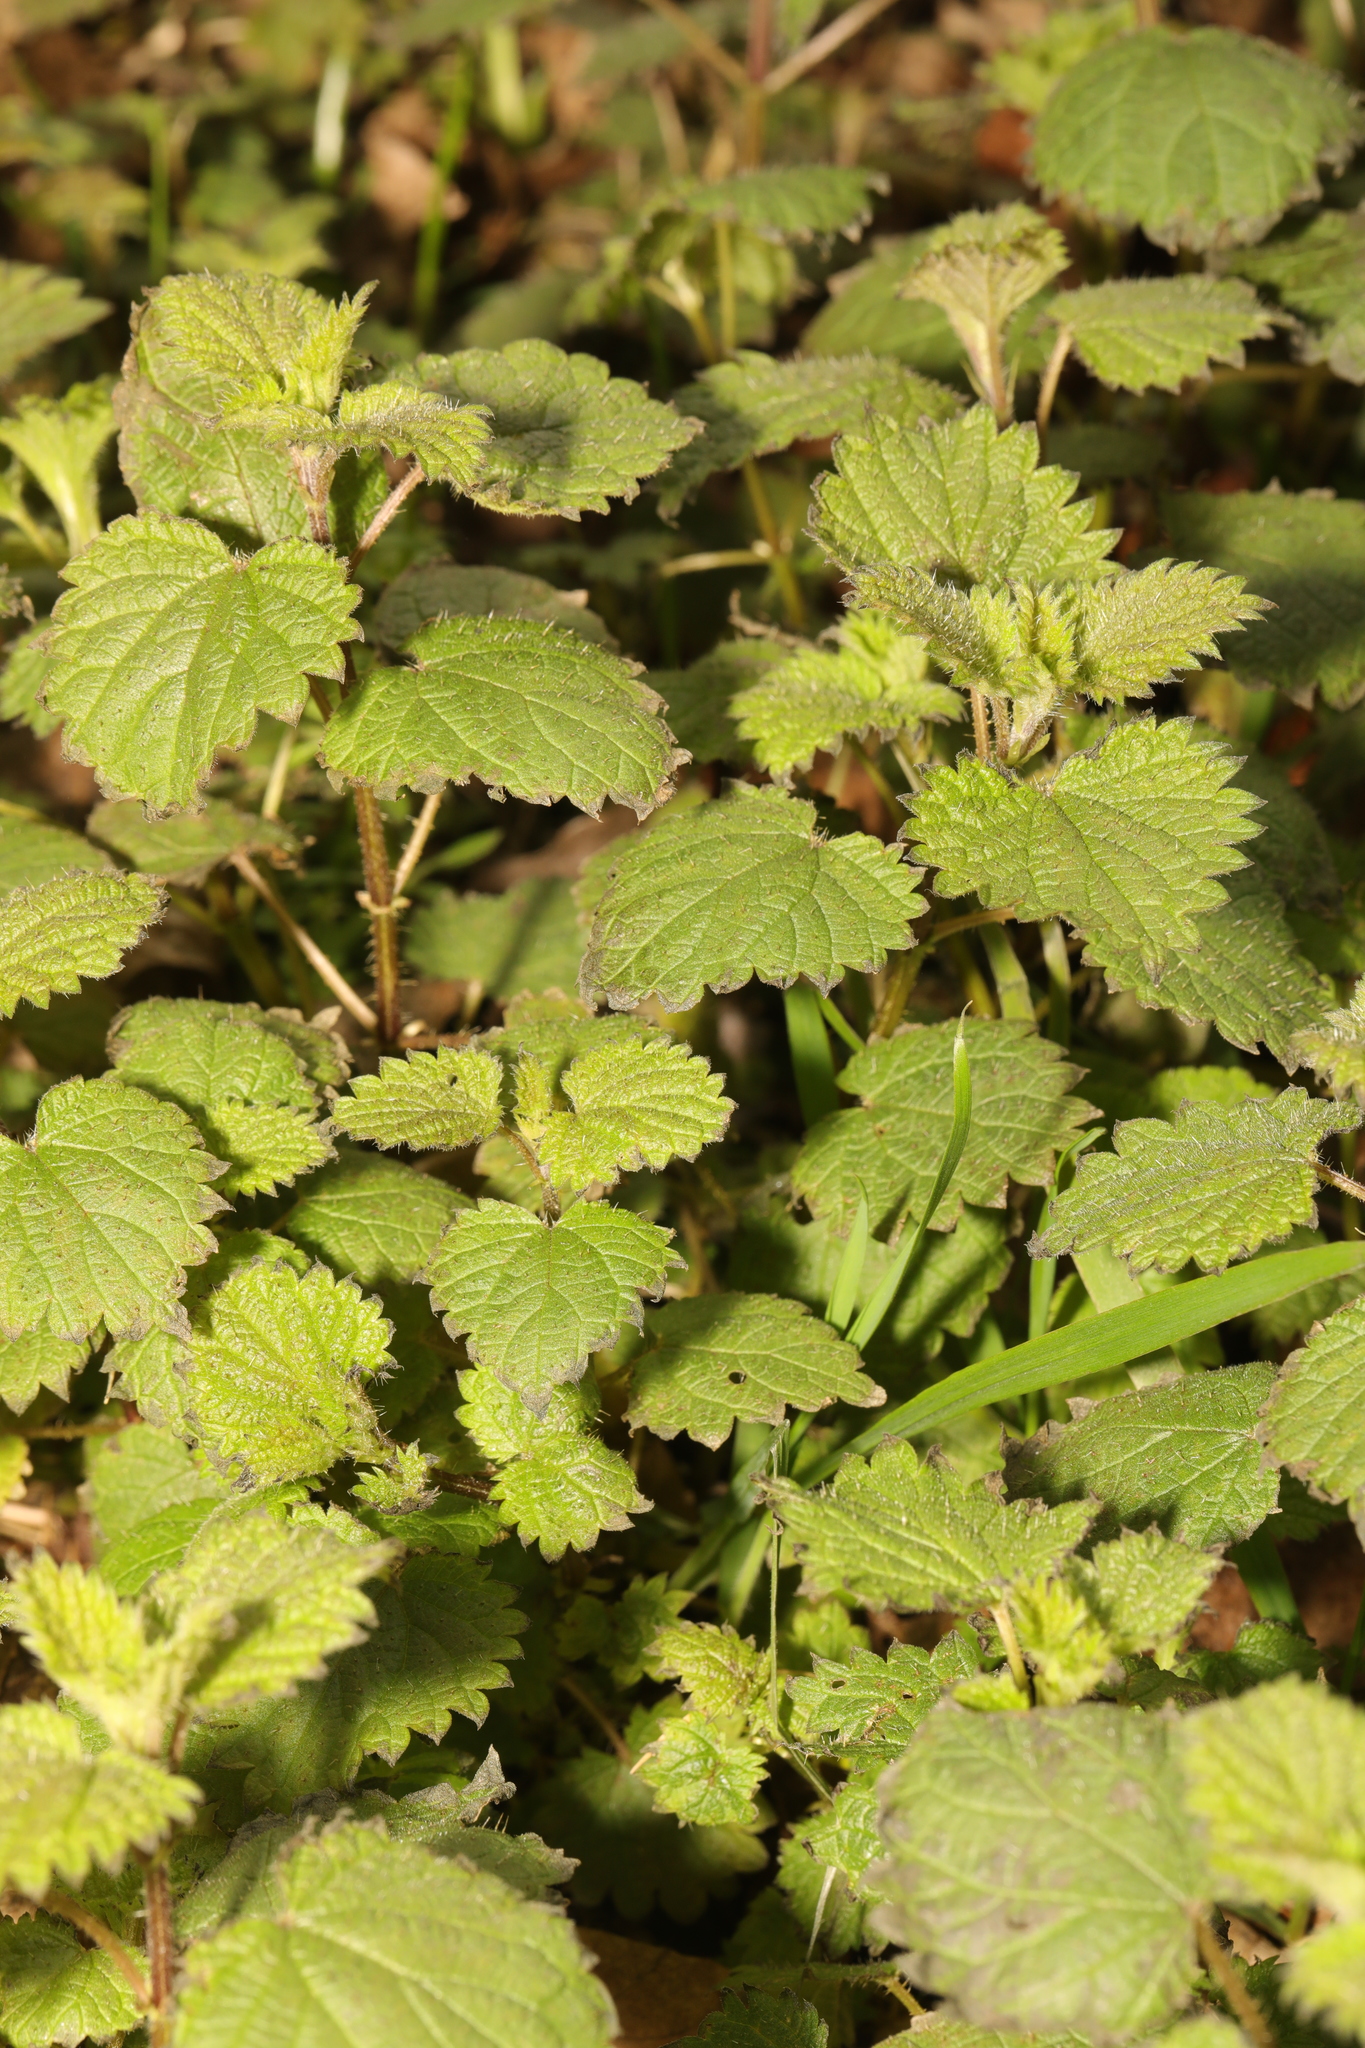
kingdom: Plantae
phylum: Tracheophyta
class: Magnoliopsida
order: Rosales
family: Urticaceae
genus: Urtica
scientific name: Urtica dioica
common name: Common nettle
